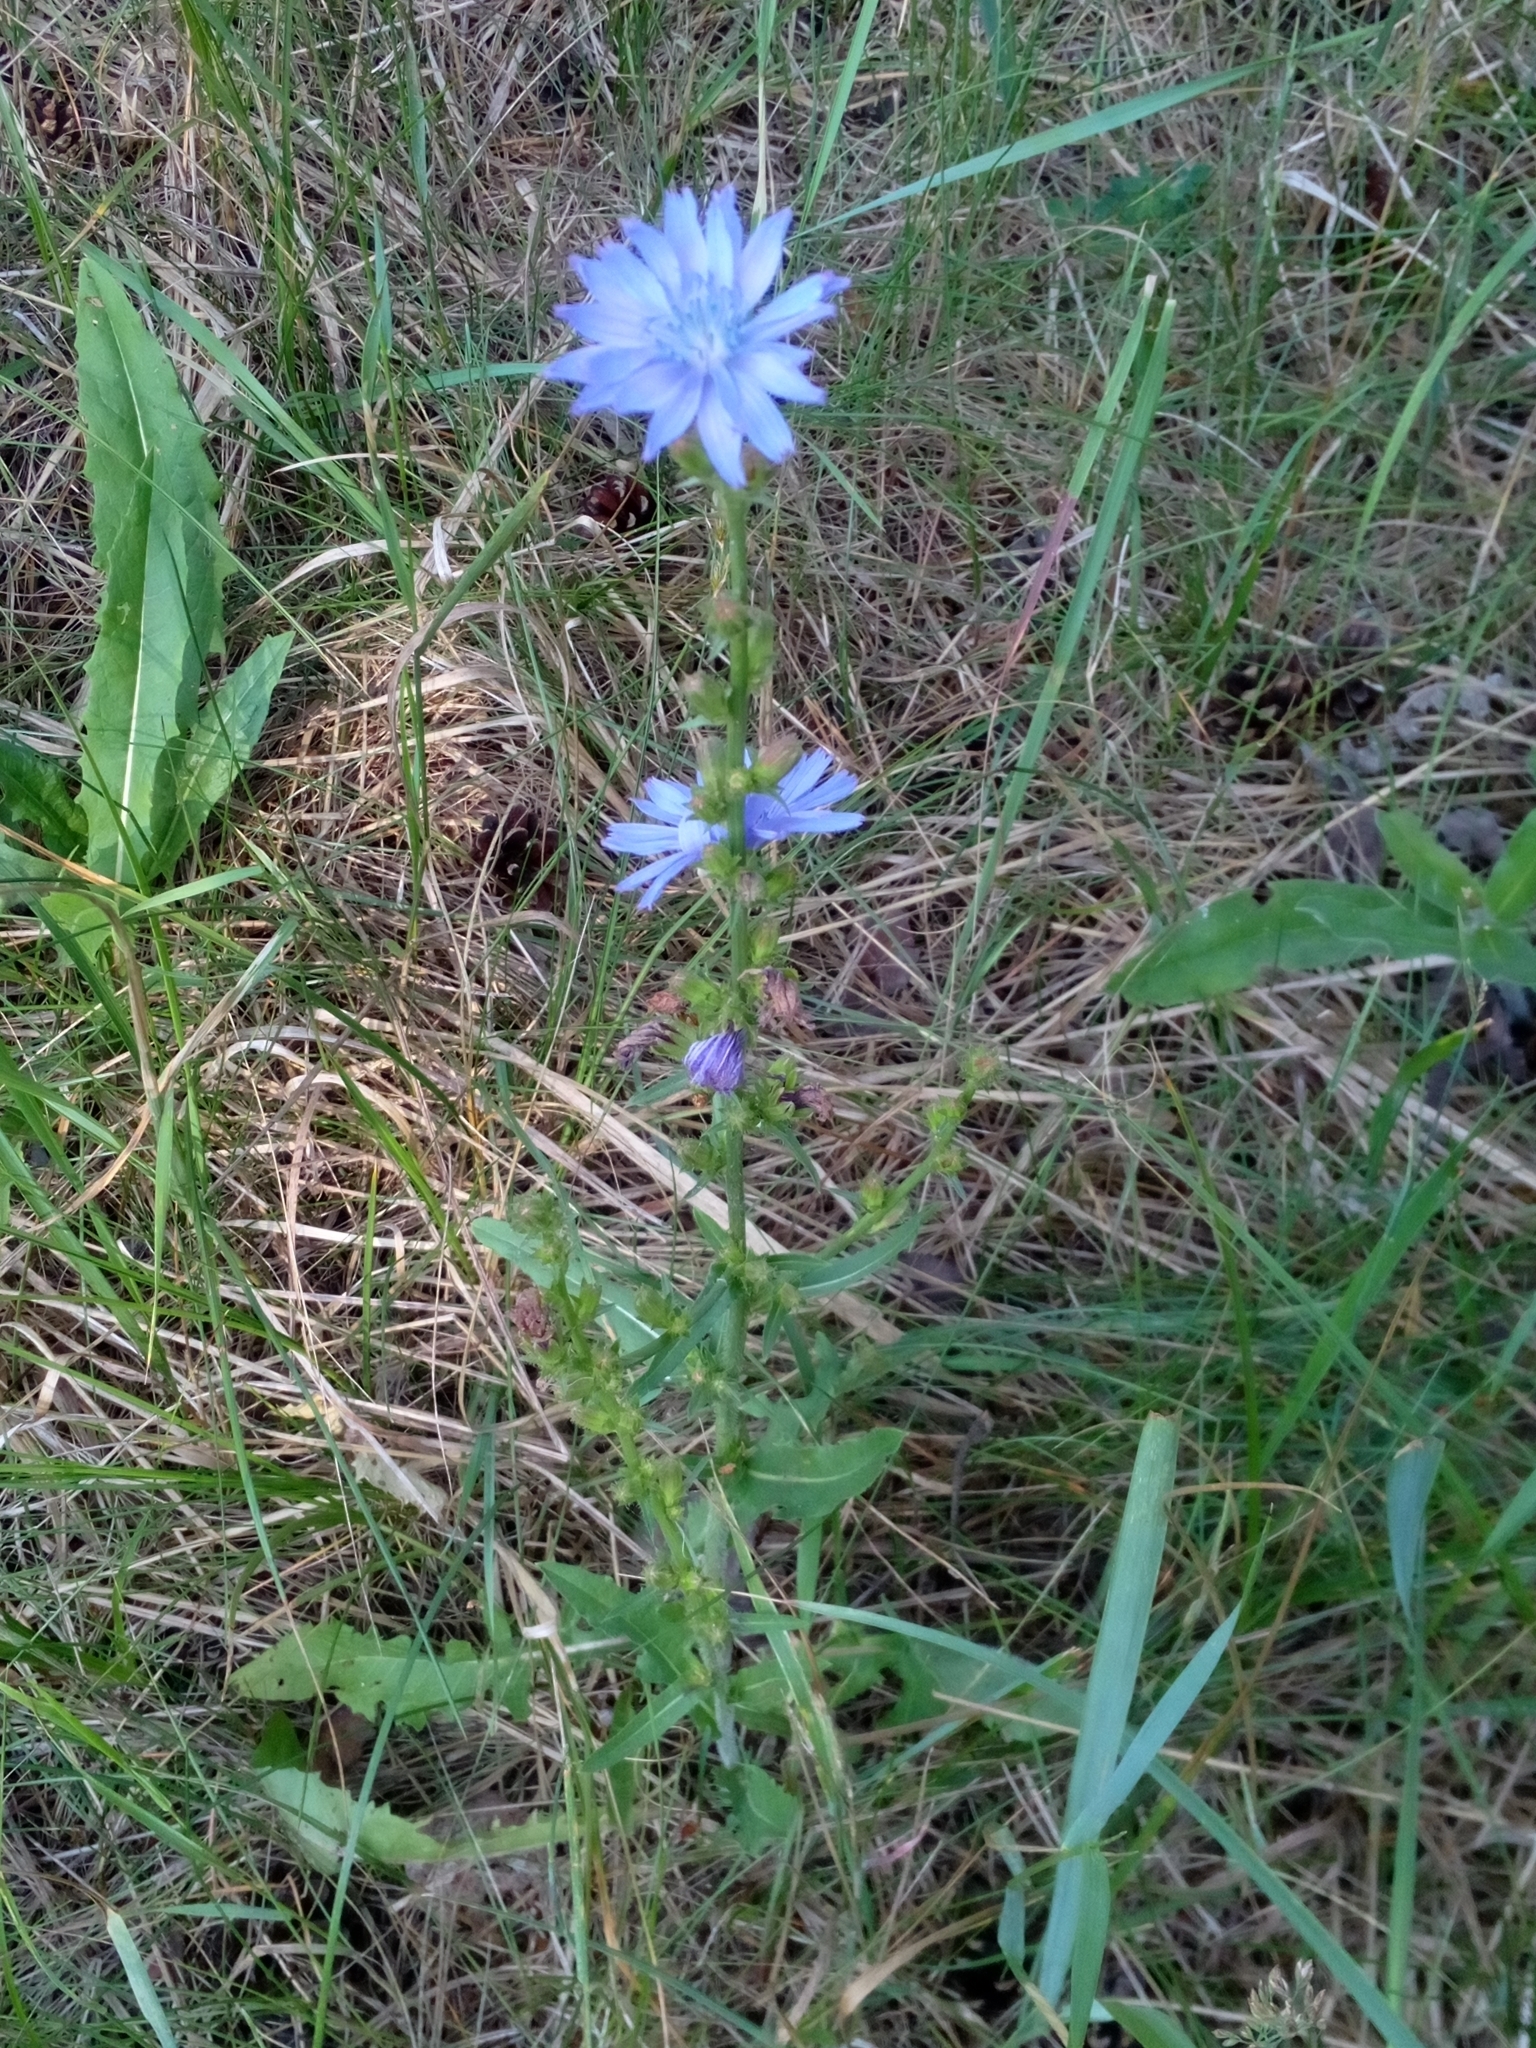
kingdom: Plantae
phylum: Tracheophyta
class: Magnoliopsida
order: Asterales
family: Asteraceae
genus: Cichorium
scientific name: Cichorium intybus
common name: Chicory
